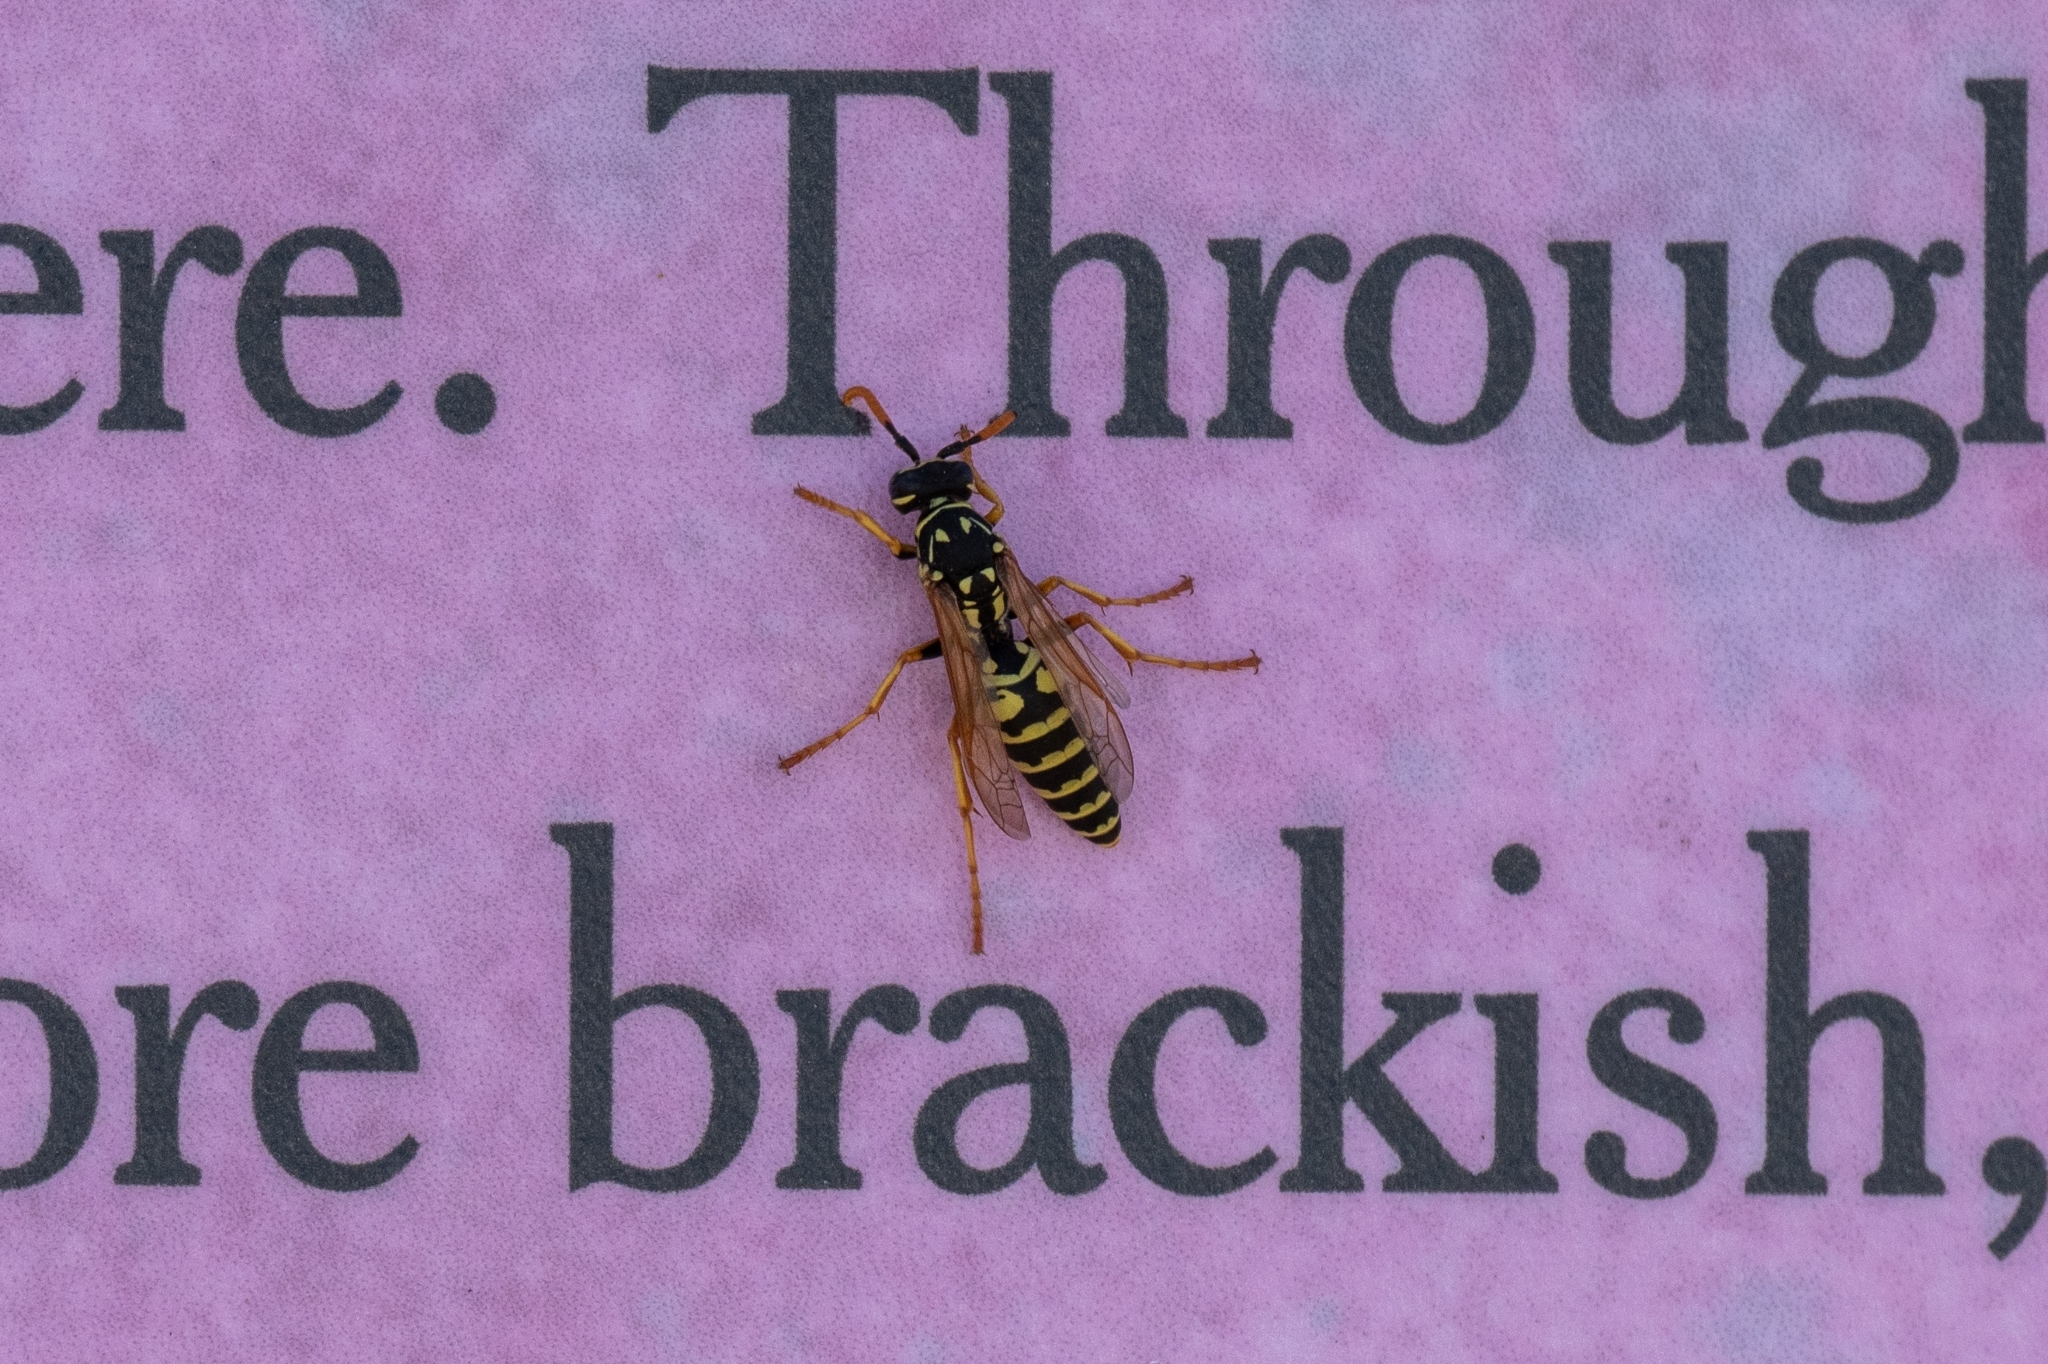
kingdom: Animalia
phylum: Arthropoda
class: Insecta
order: Hymenoptera
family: Eumenidae
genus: Polistes
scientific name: Polistes dominula
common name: Paper wasp
